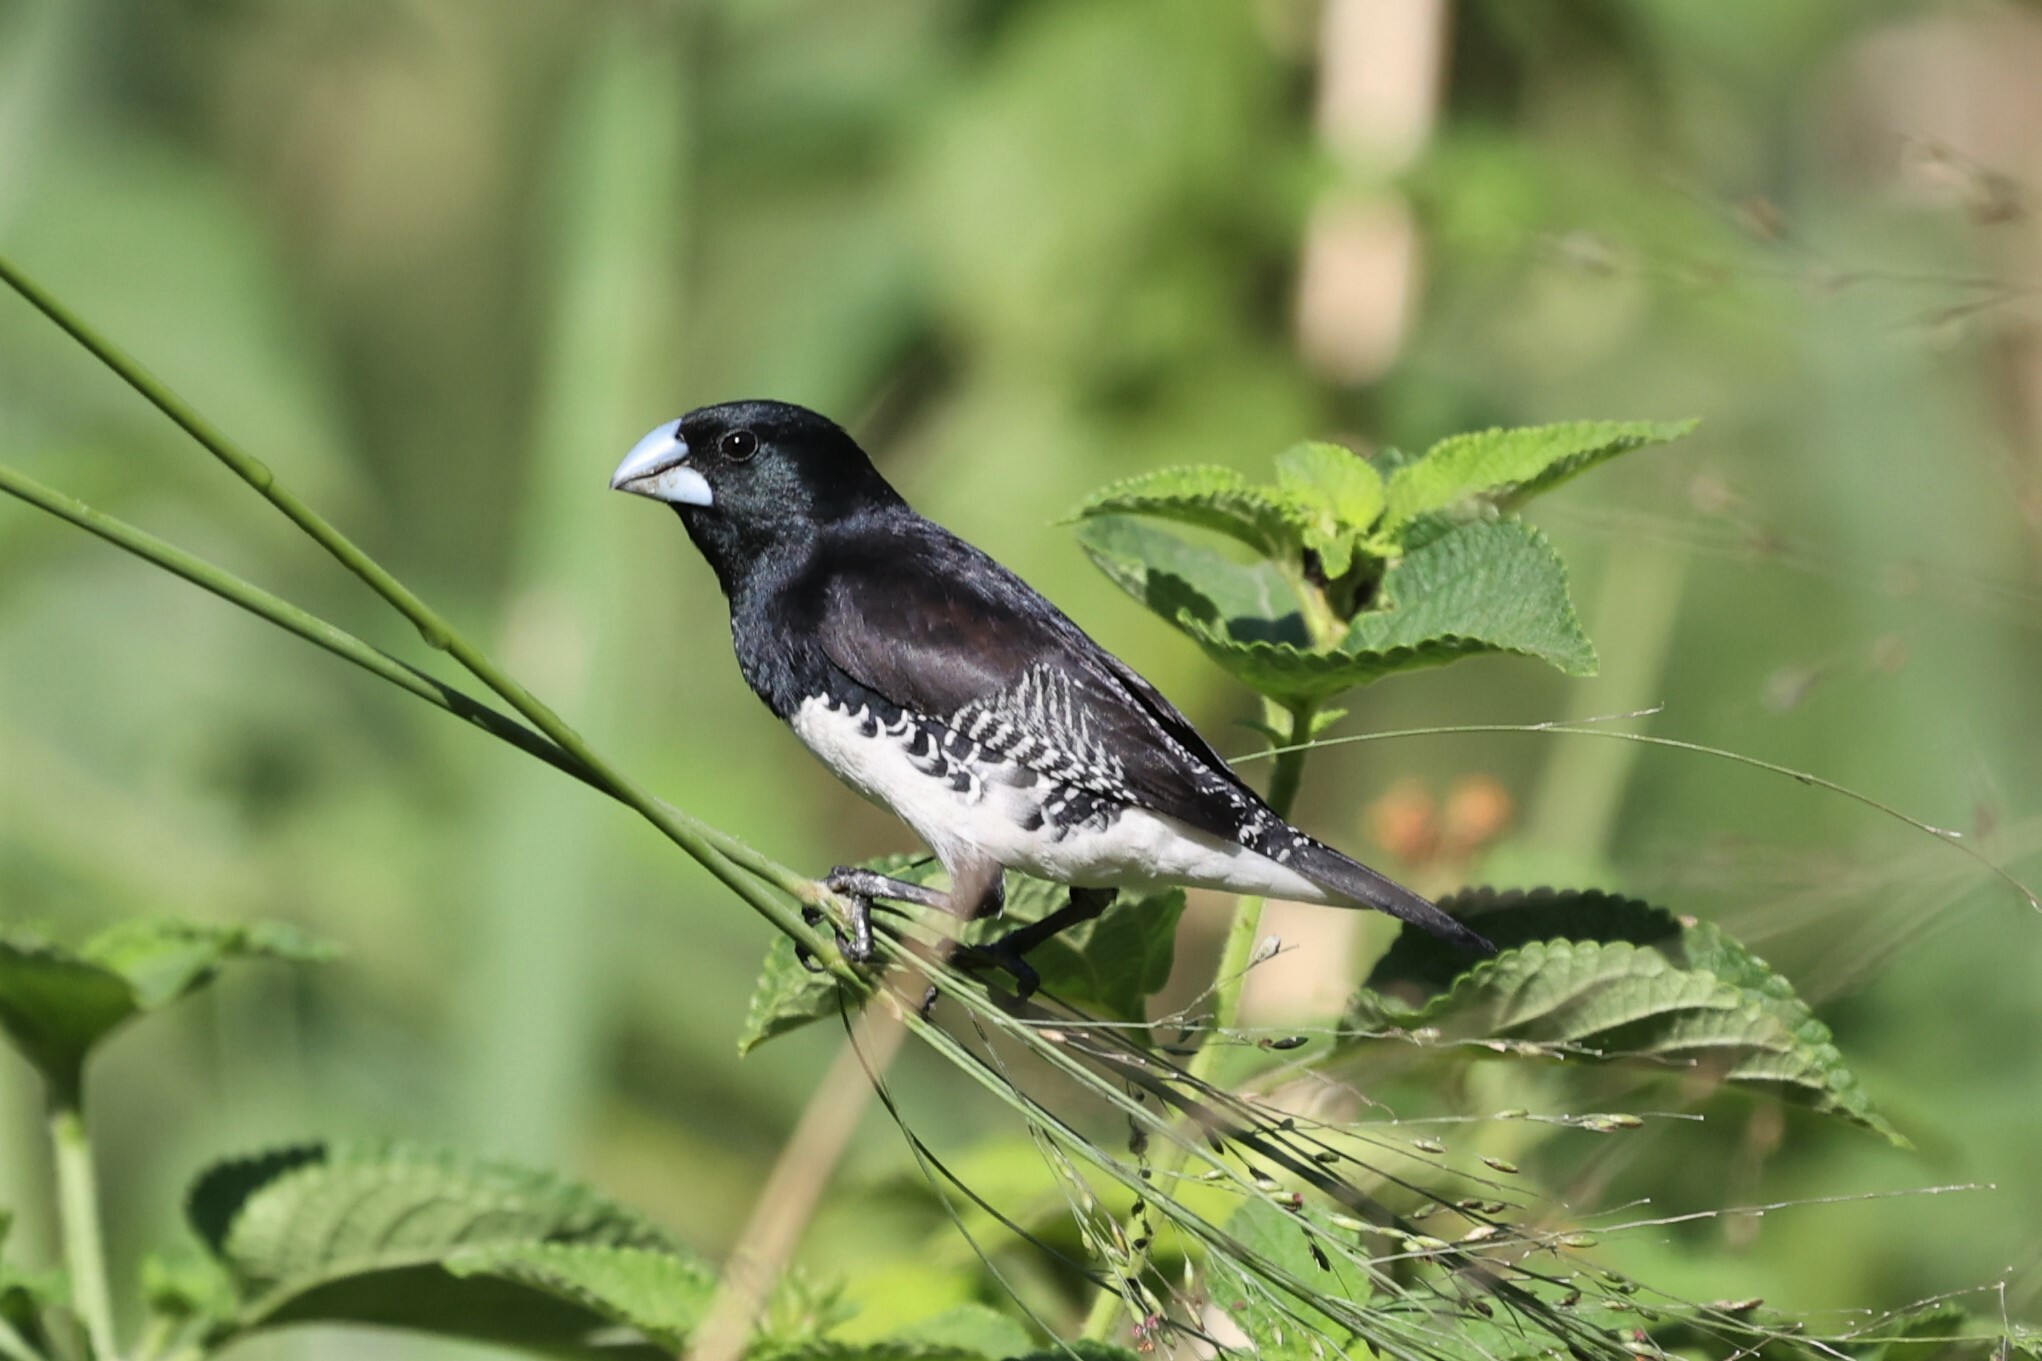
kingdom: Animalia
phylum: Chordata
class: Aves
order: Passeriformes
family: Estrildidae
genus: Lonchura
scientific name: Lonchura bicolor
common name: Black-and-white mannikin
